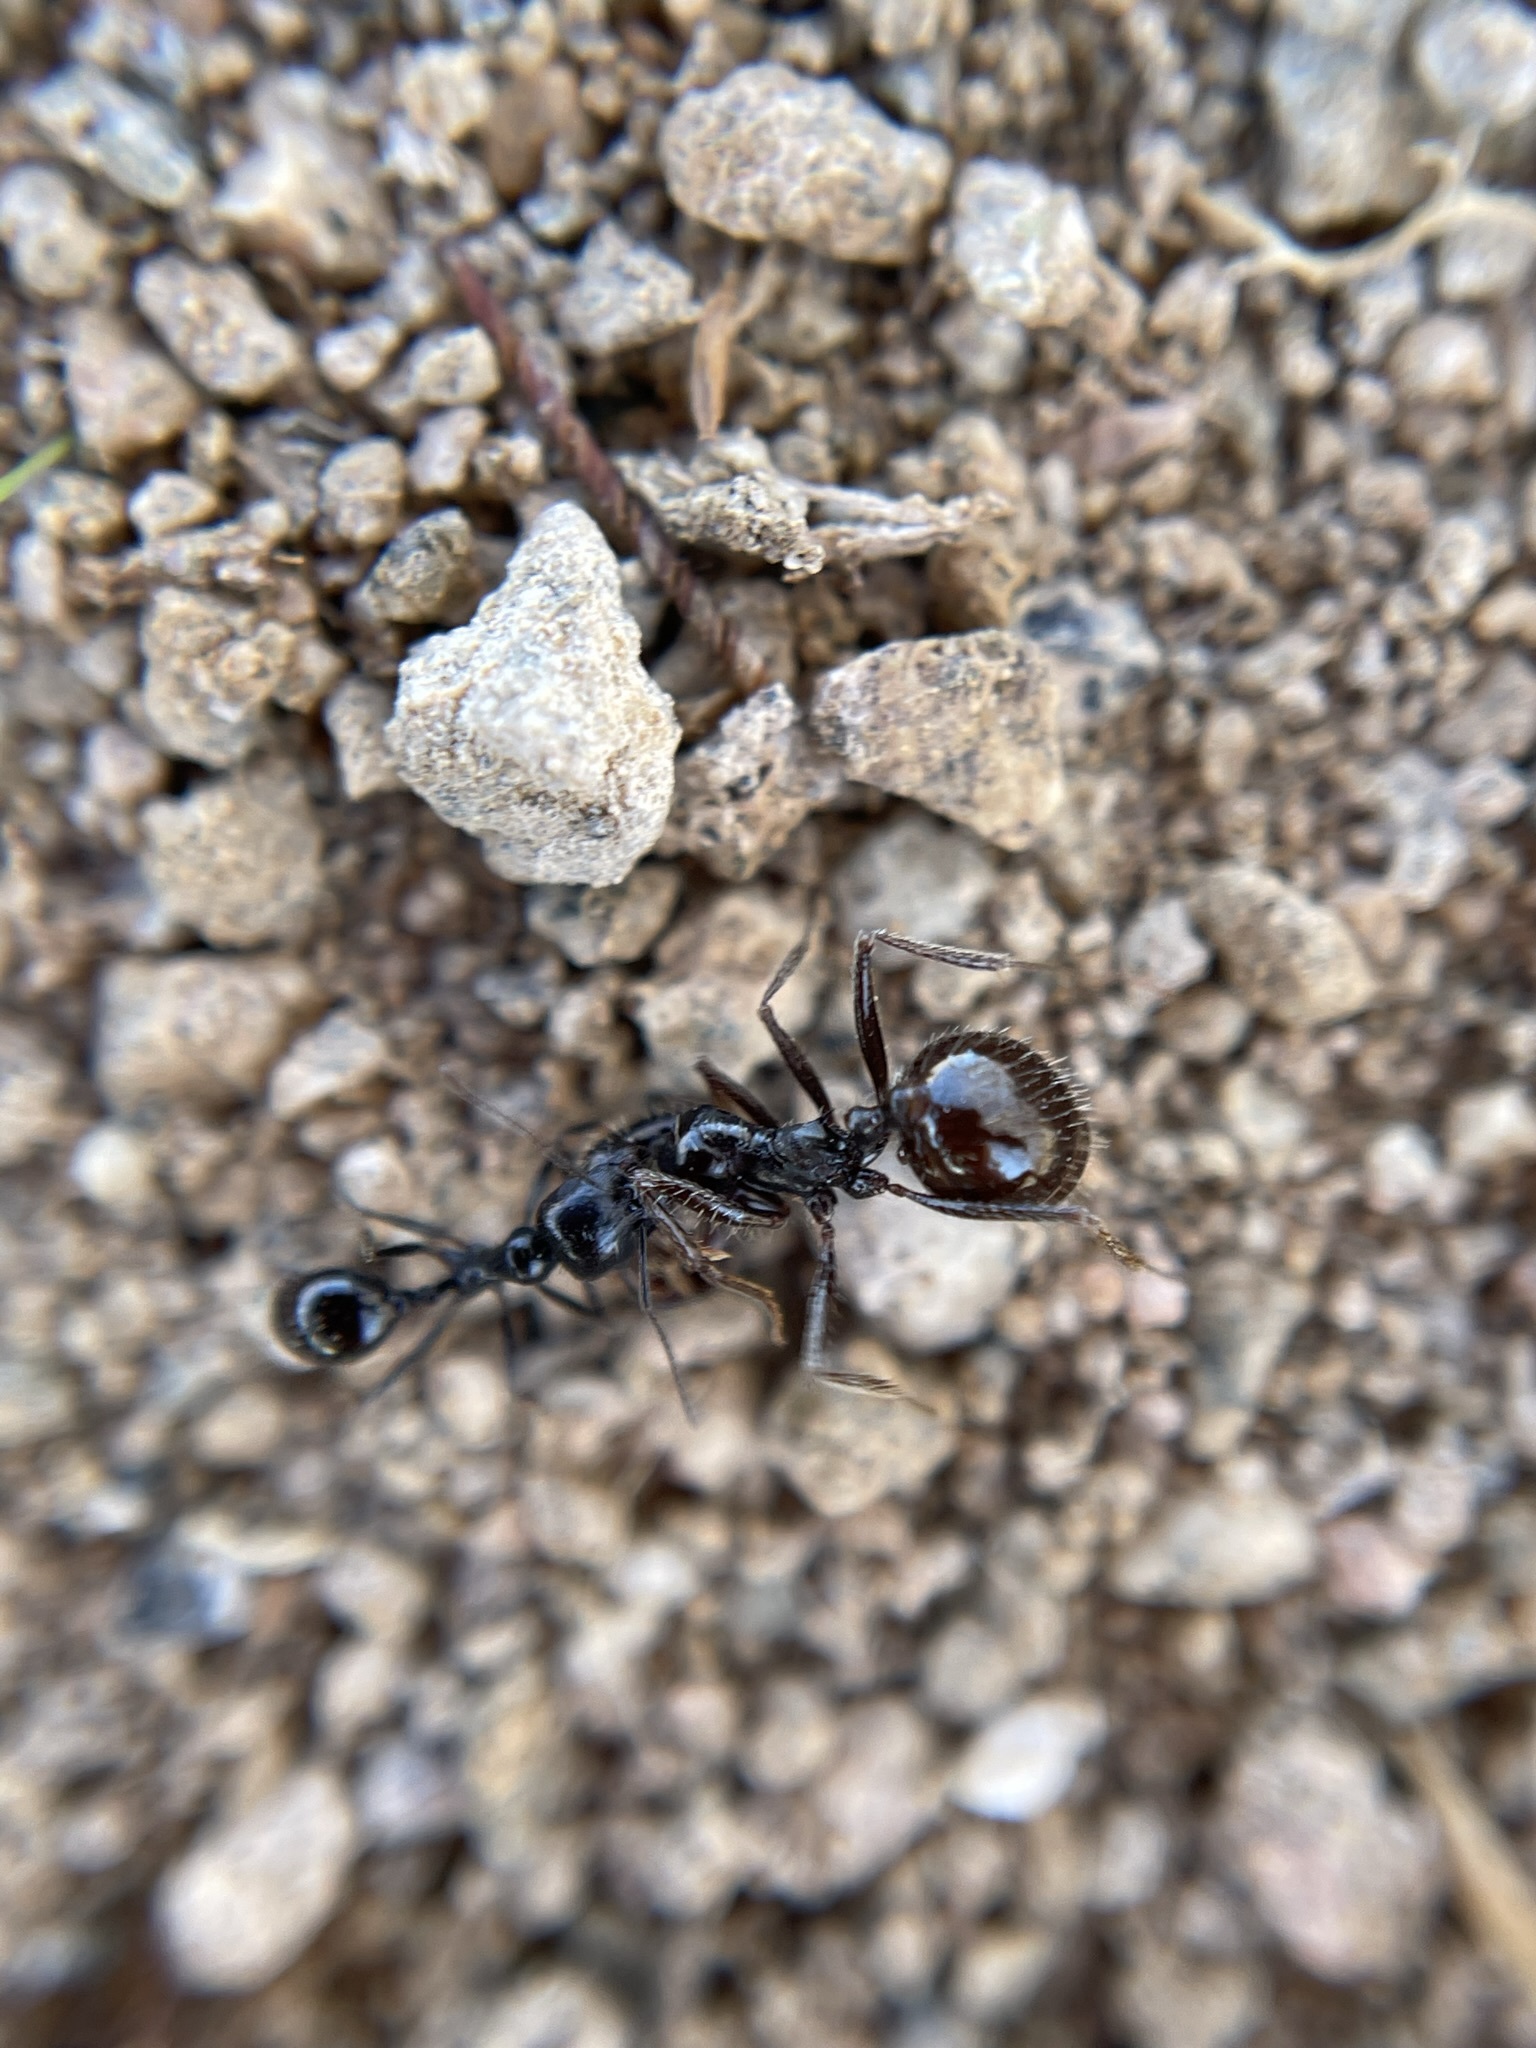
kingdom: Animalia
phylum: Arthropoda
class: Insecta
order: Hymenoptera
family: Formicidae
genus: Messor
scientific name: Messor pergandei
